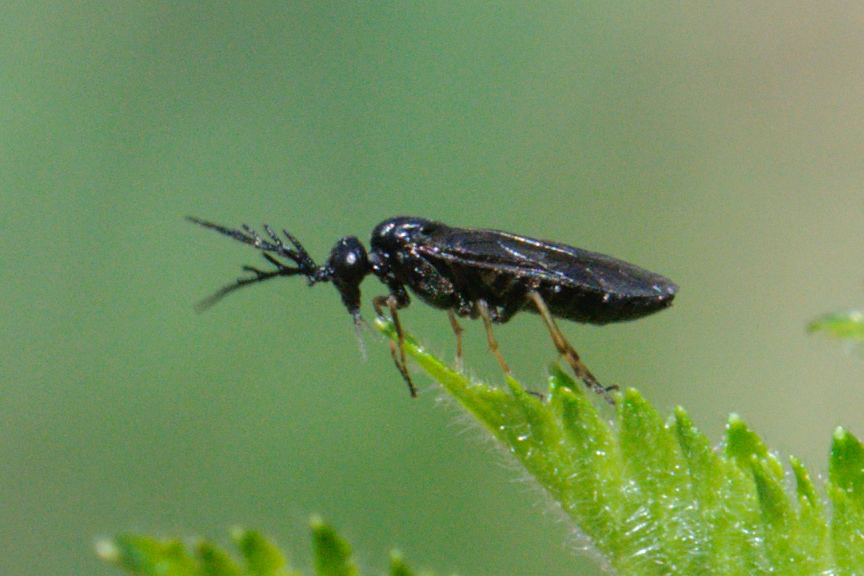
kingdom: Animalia
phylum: Arthropoda
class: Insecta
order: Hymenoptera
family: Tenthredinidae
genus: Cladius
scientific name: Cladius pectinicornis
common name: Sawfly
